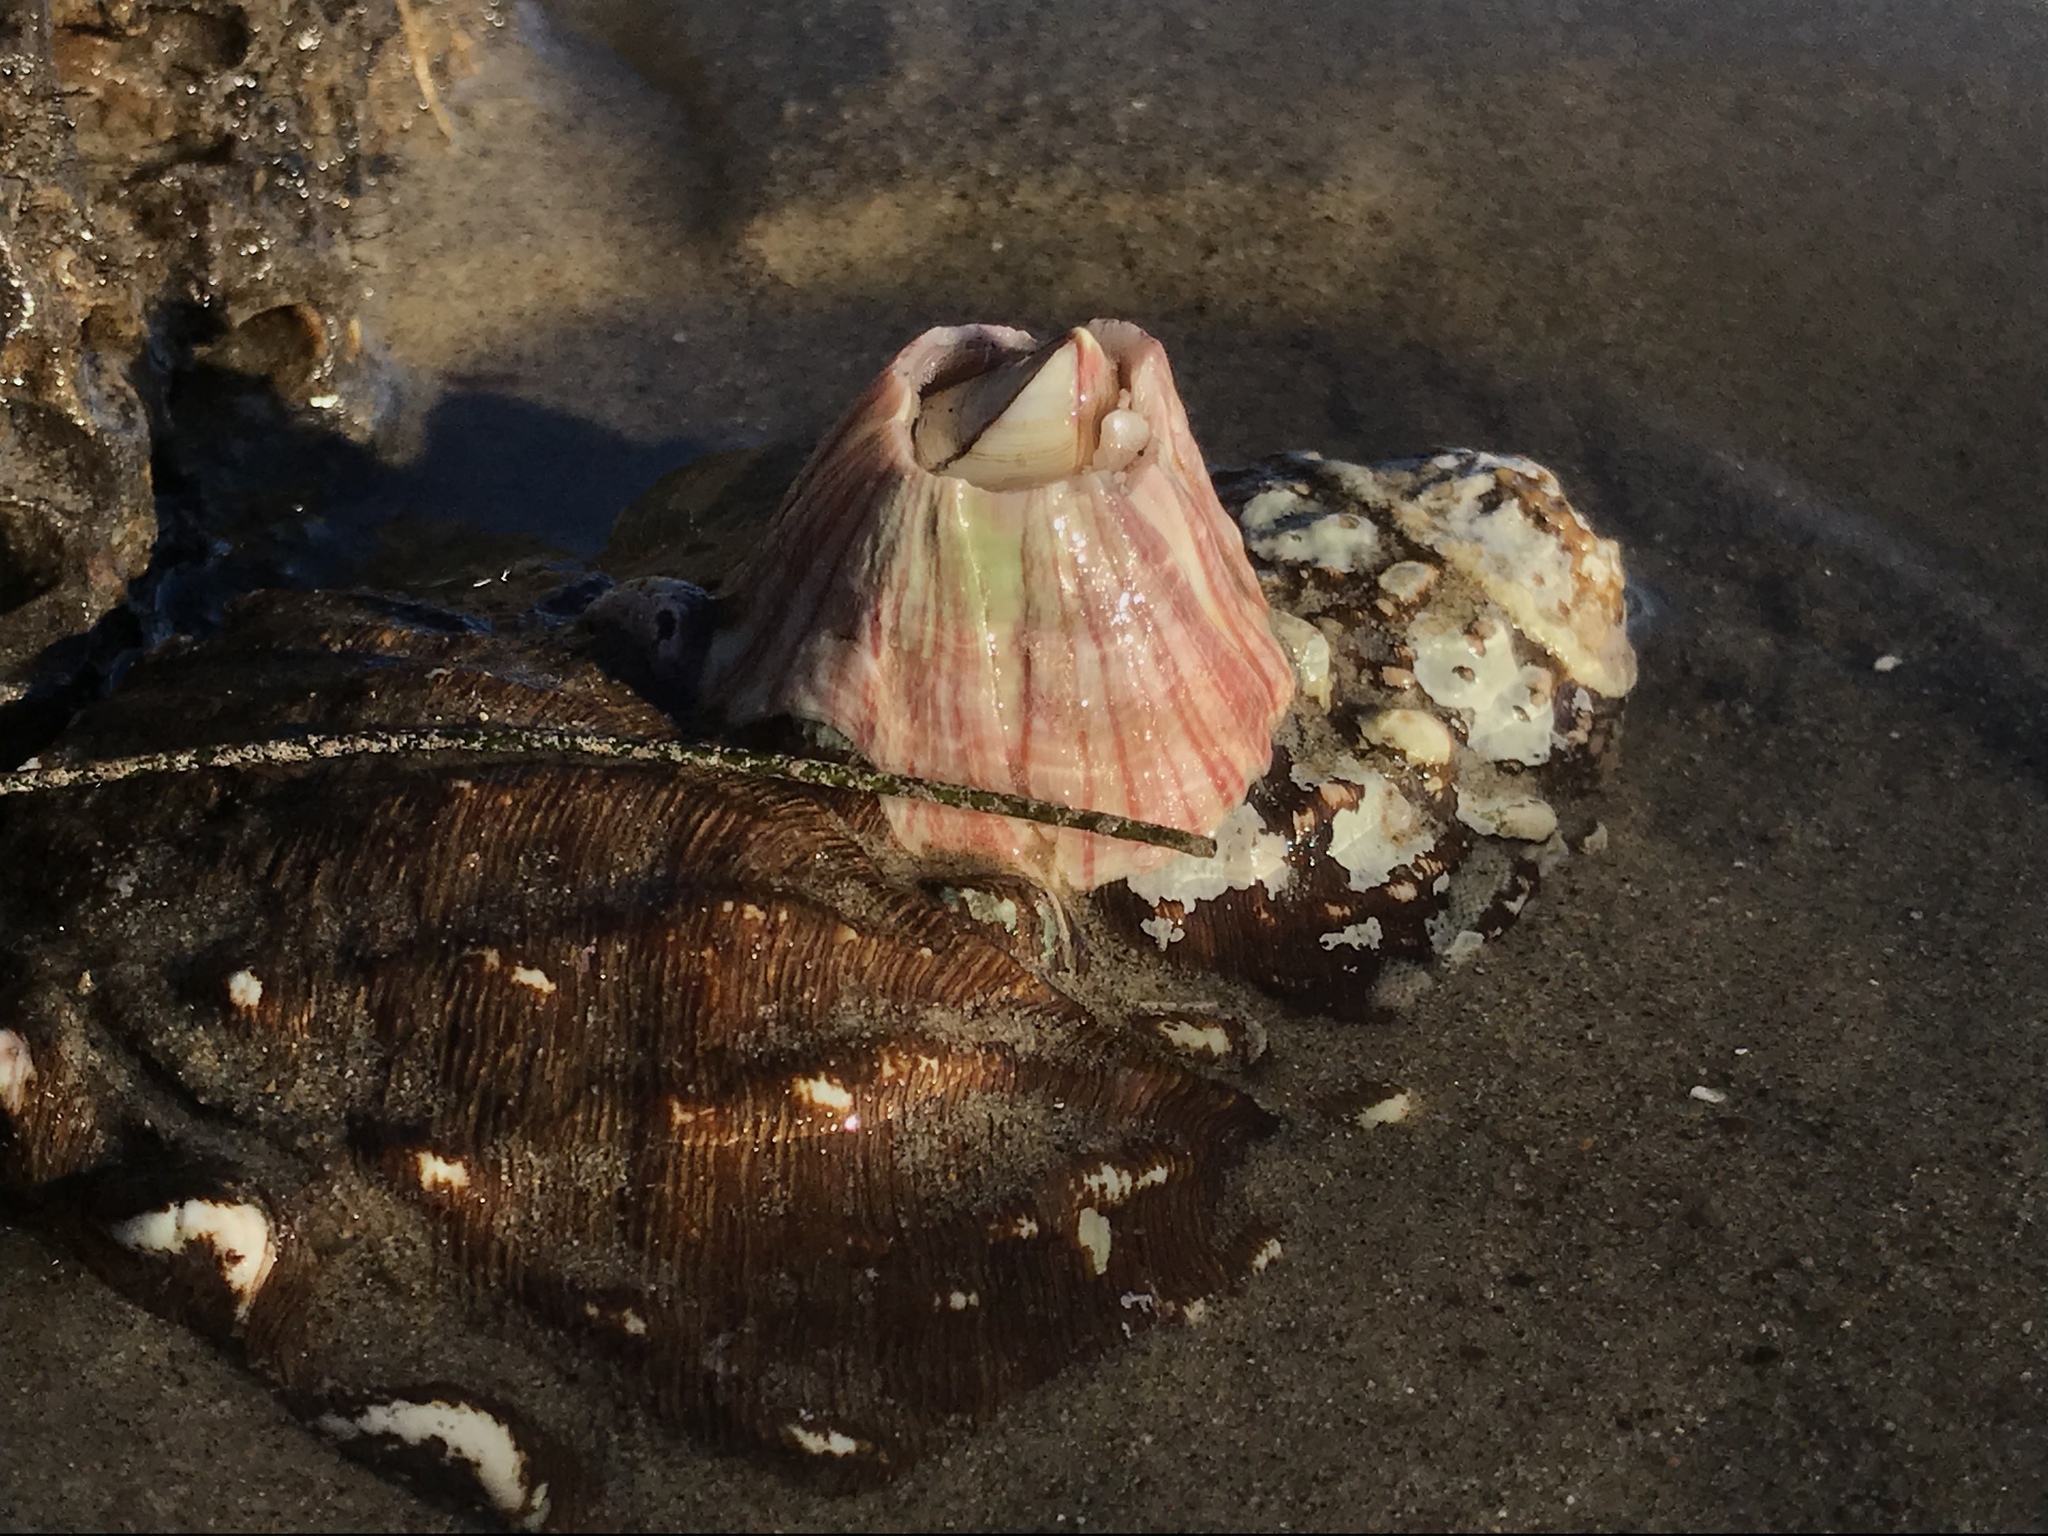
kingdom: Animalia
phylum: Arthropoda
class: Maxillopoda
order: Sessilia
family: Balanidae
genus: Paraconcavus
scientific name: Paraconcavus pacificus
